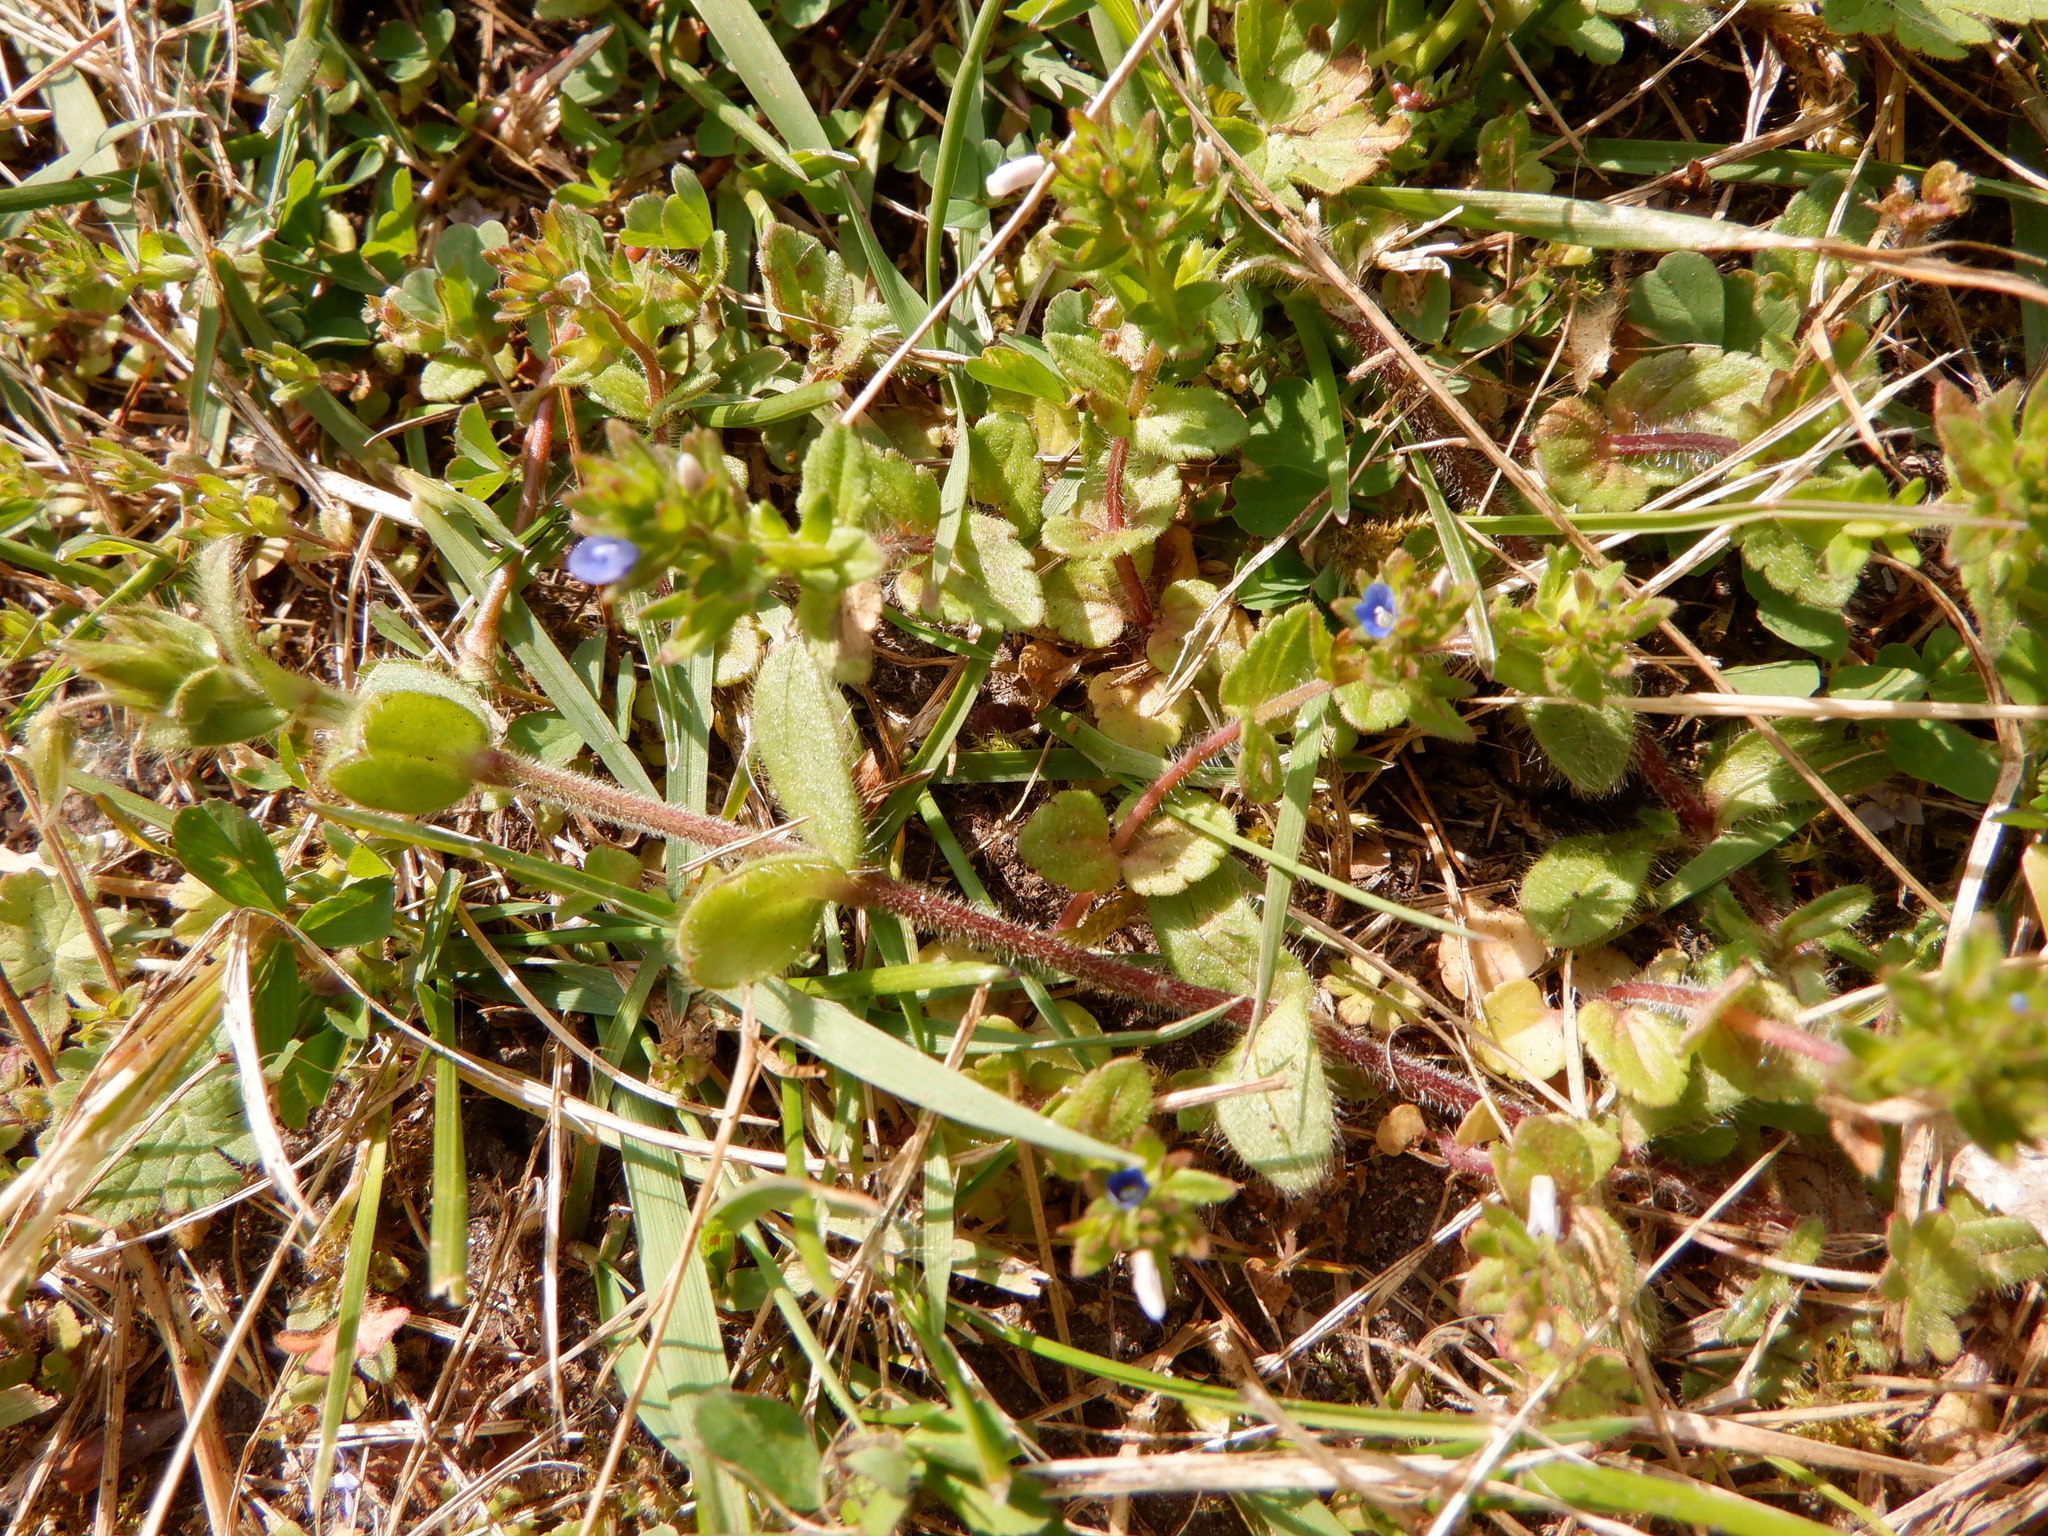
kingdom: Plantae
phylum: Tracheophyta
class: Magnoliopsida
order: Lamiales
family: Plantaginaceae
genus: Veronica
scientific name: Veronica arvensis
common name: Corn speedwell
